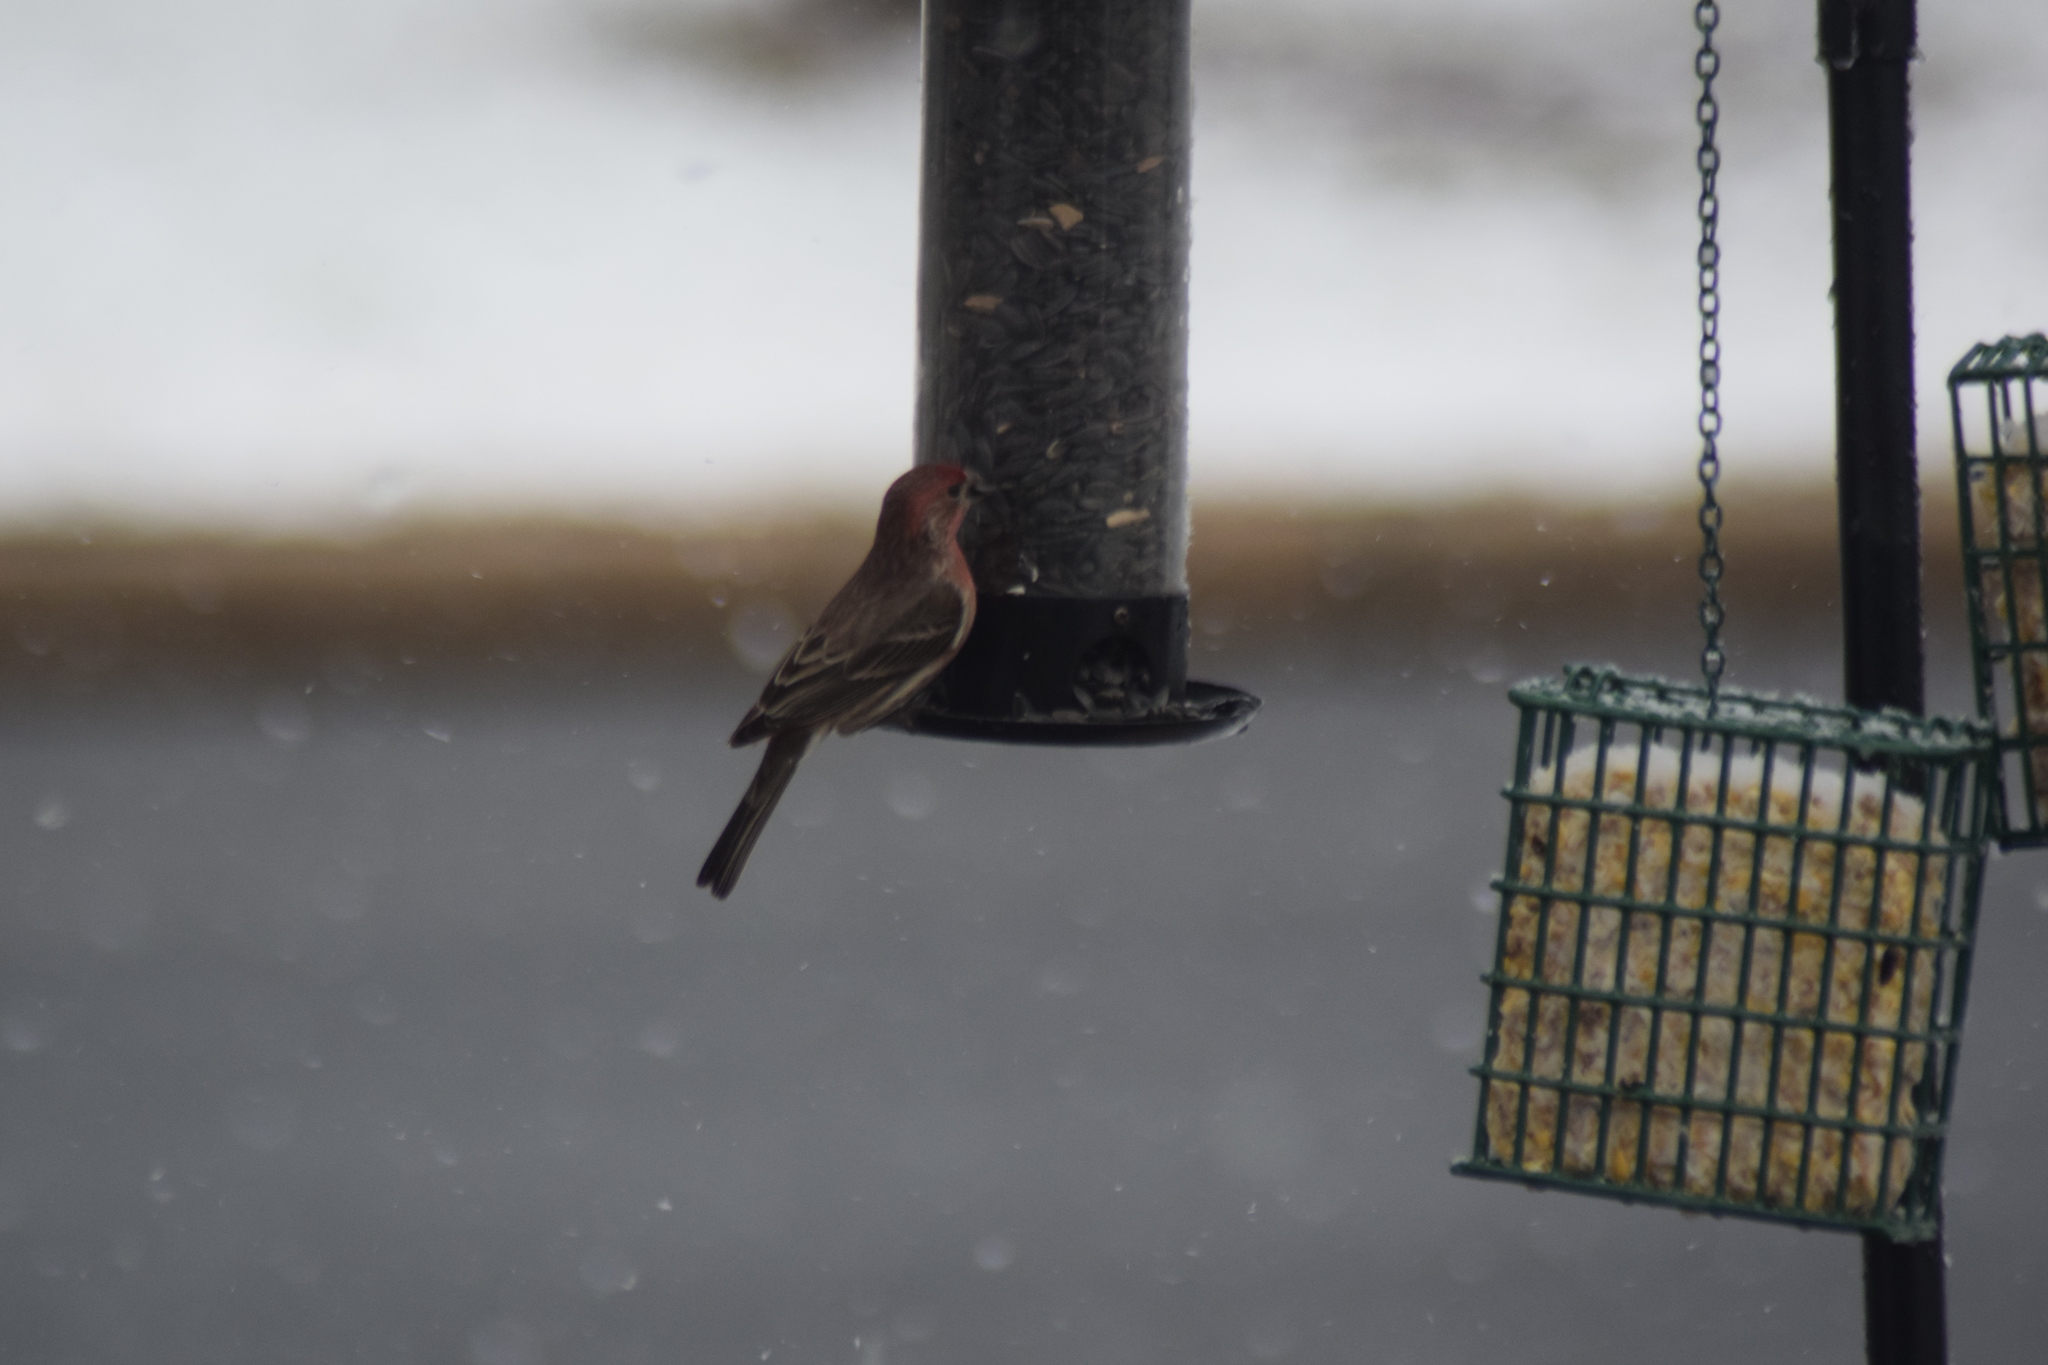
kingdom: Animalia
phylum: Chordata
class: Aves
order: Passeriformes
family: Fringillidae
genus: Haemorhous
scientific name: Haemorhous mexicanus
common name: House finch
